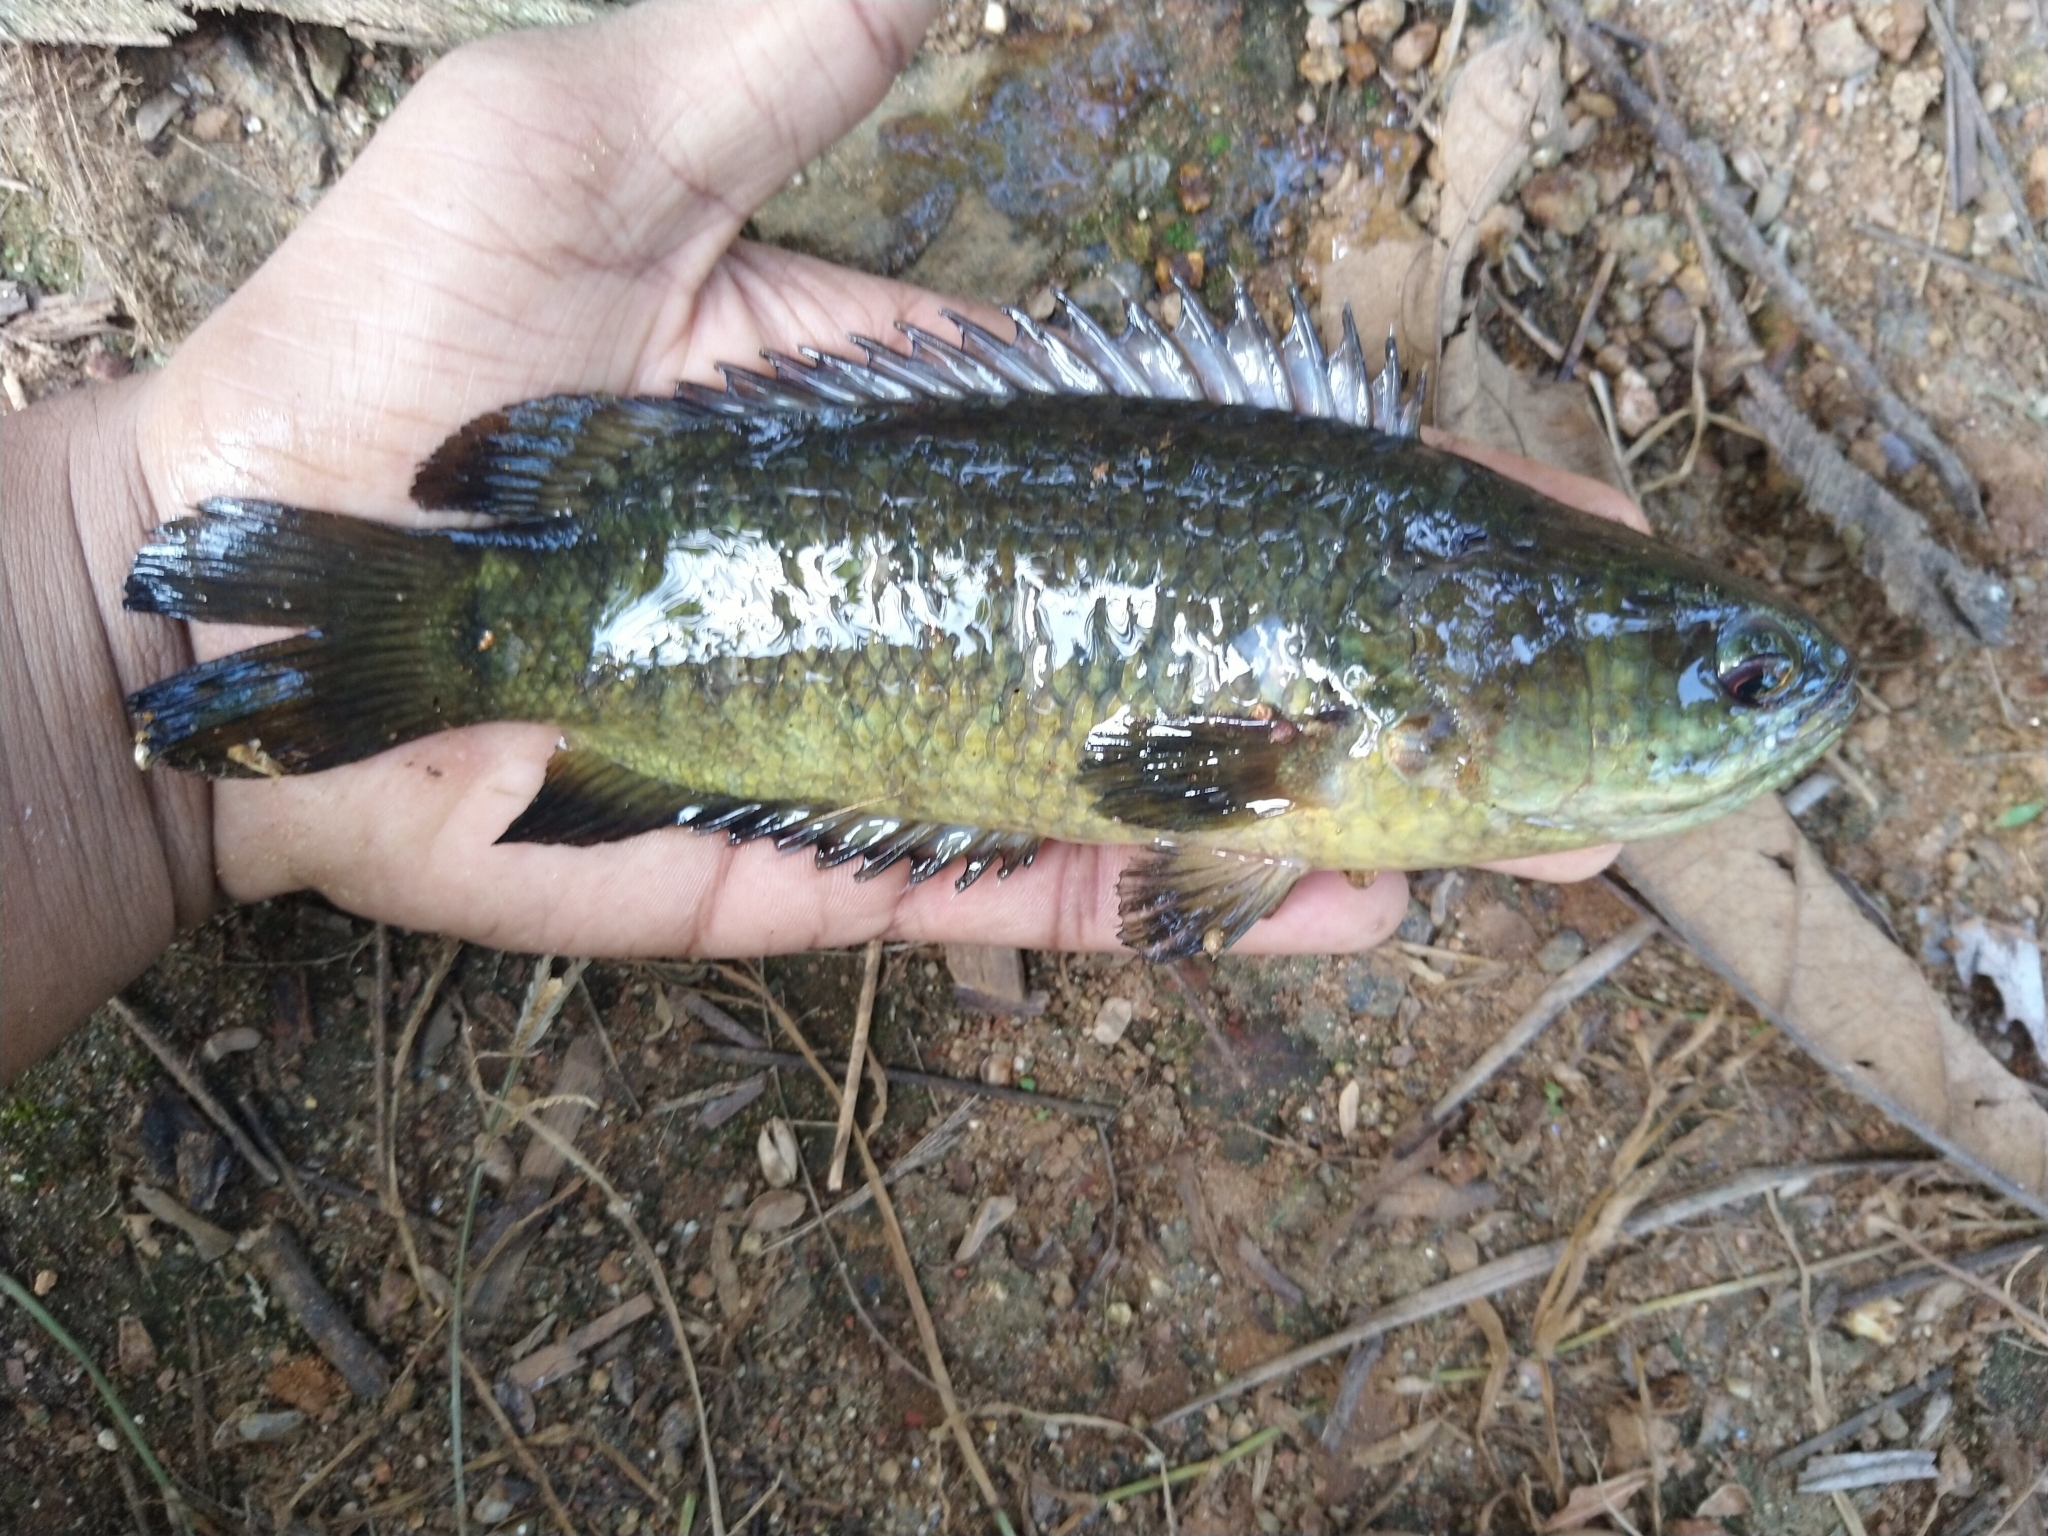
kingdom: Animalia
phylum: Chordata
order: Perciformes
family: Anabantidae
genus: Anabas
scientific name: Anabas testudineus
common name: Climbing perch
